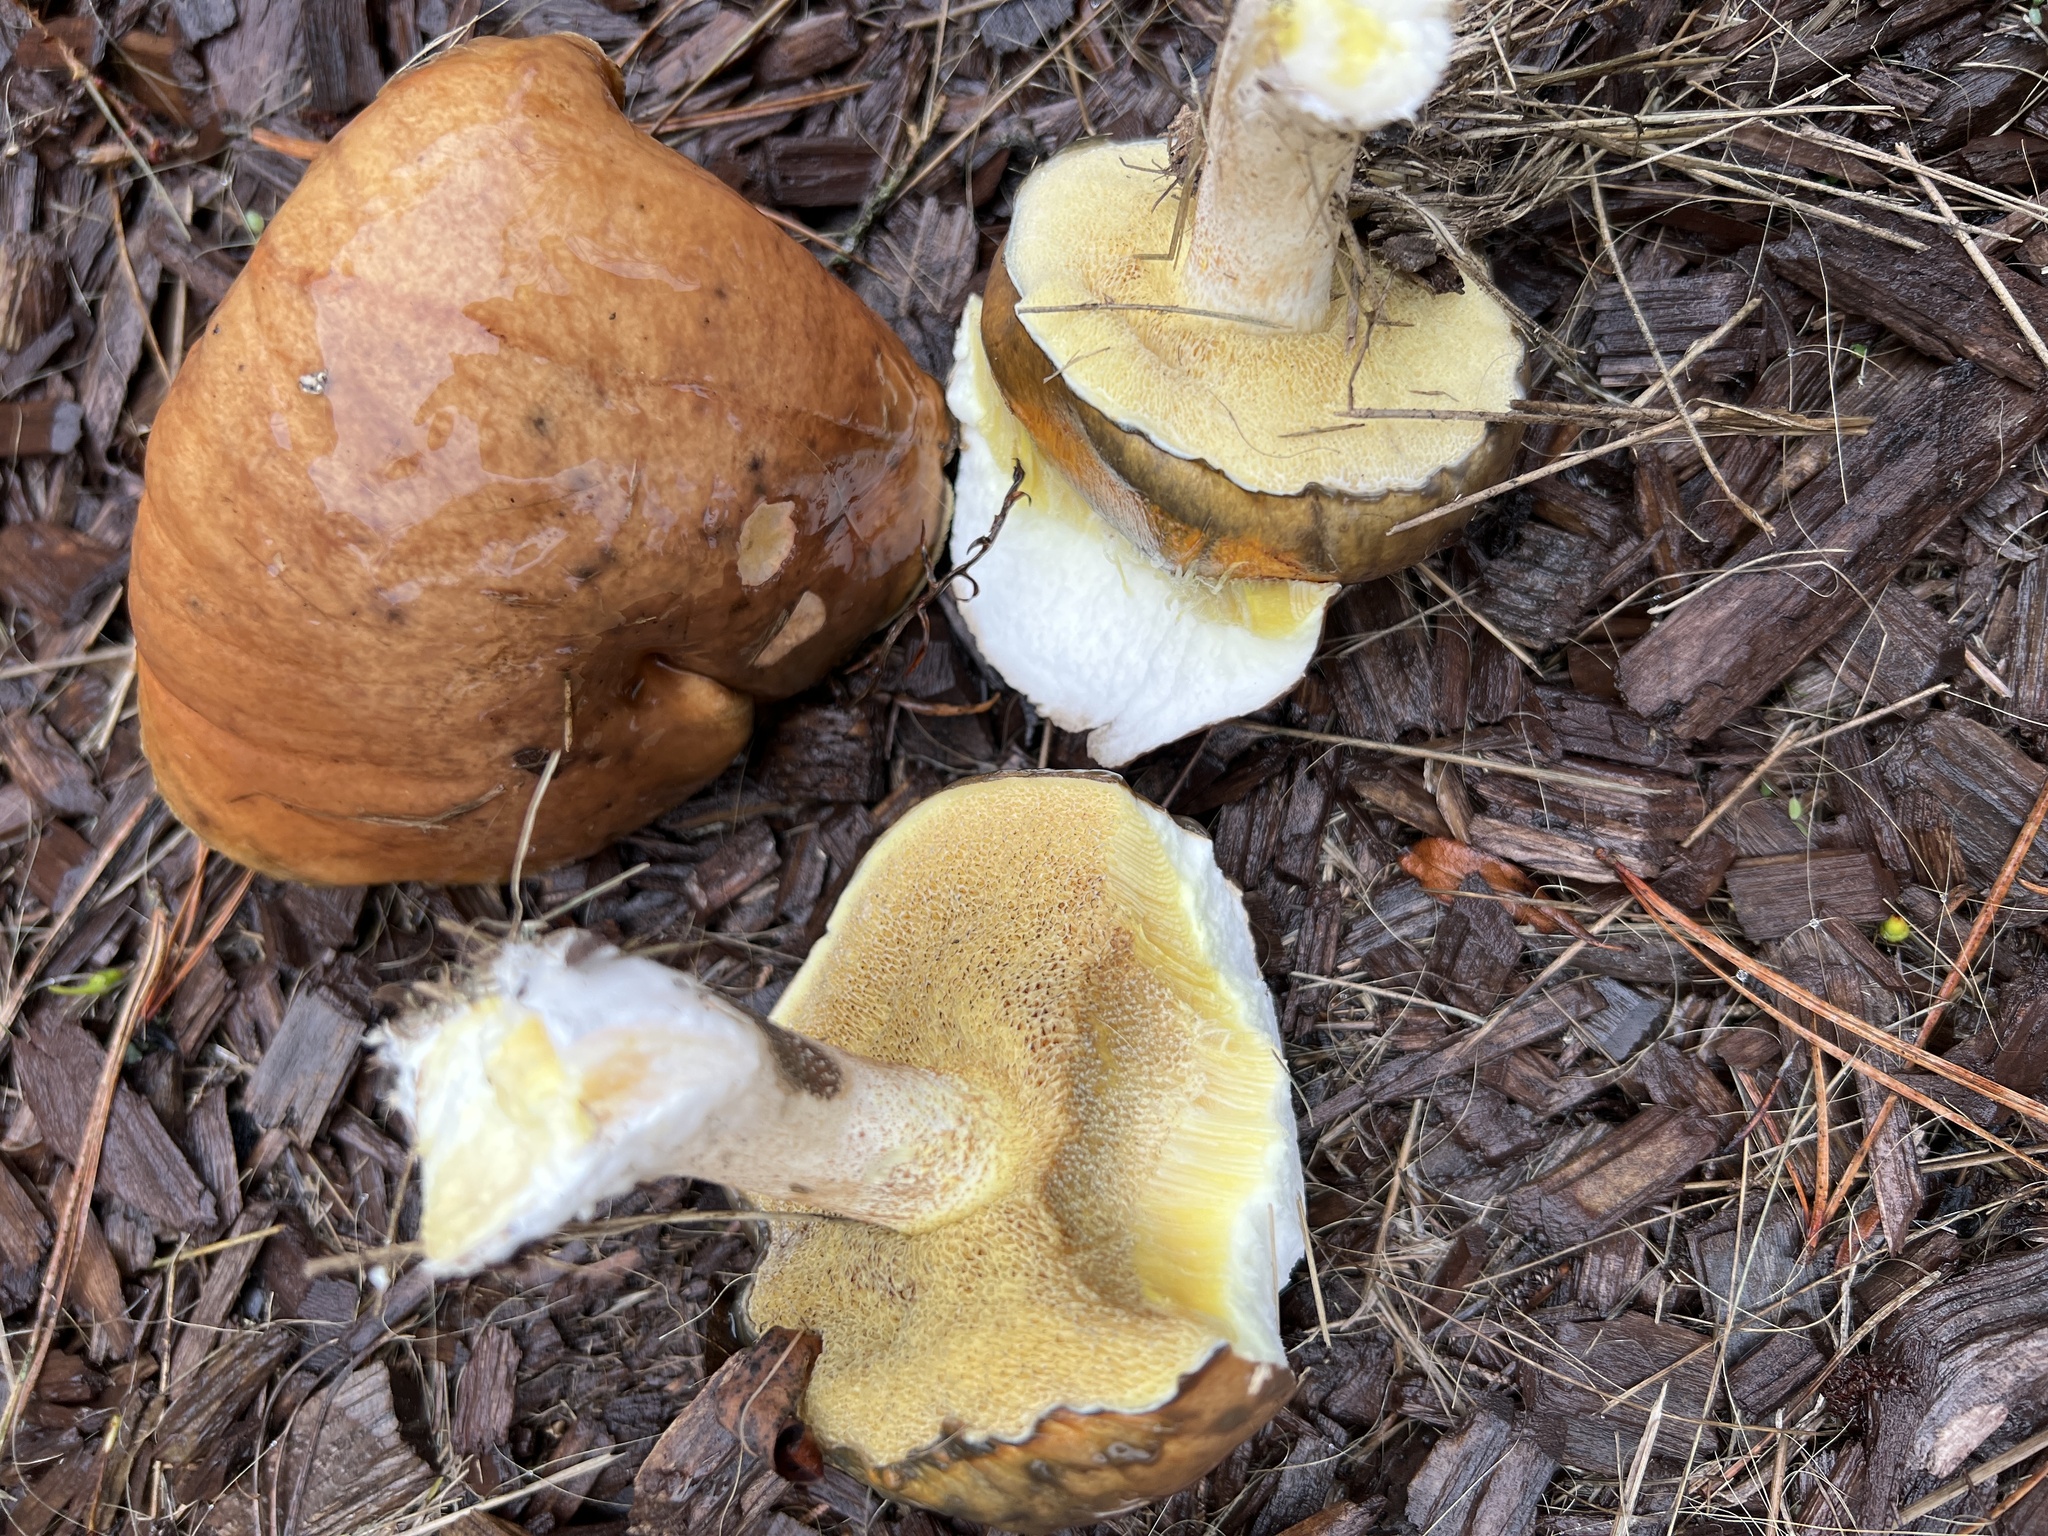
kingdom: Fungi
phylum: Basidiomycota
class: Agaricomycetes
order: Boletales
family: Suillaceae
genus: Suillus
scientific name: Suillus pungens
